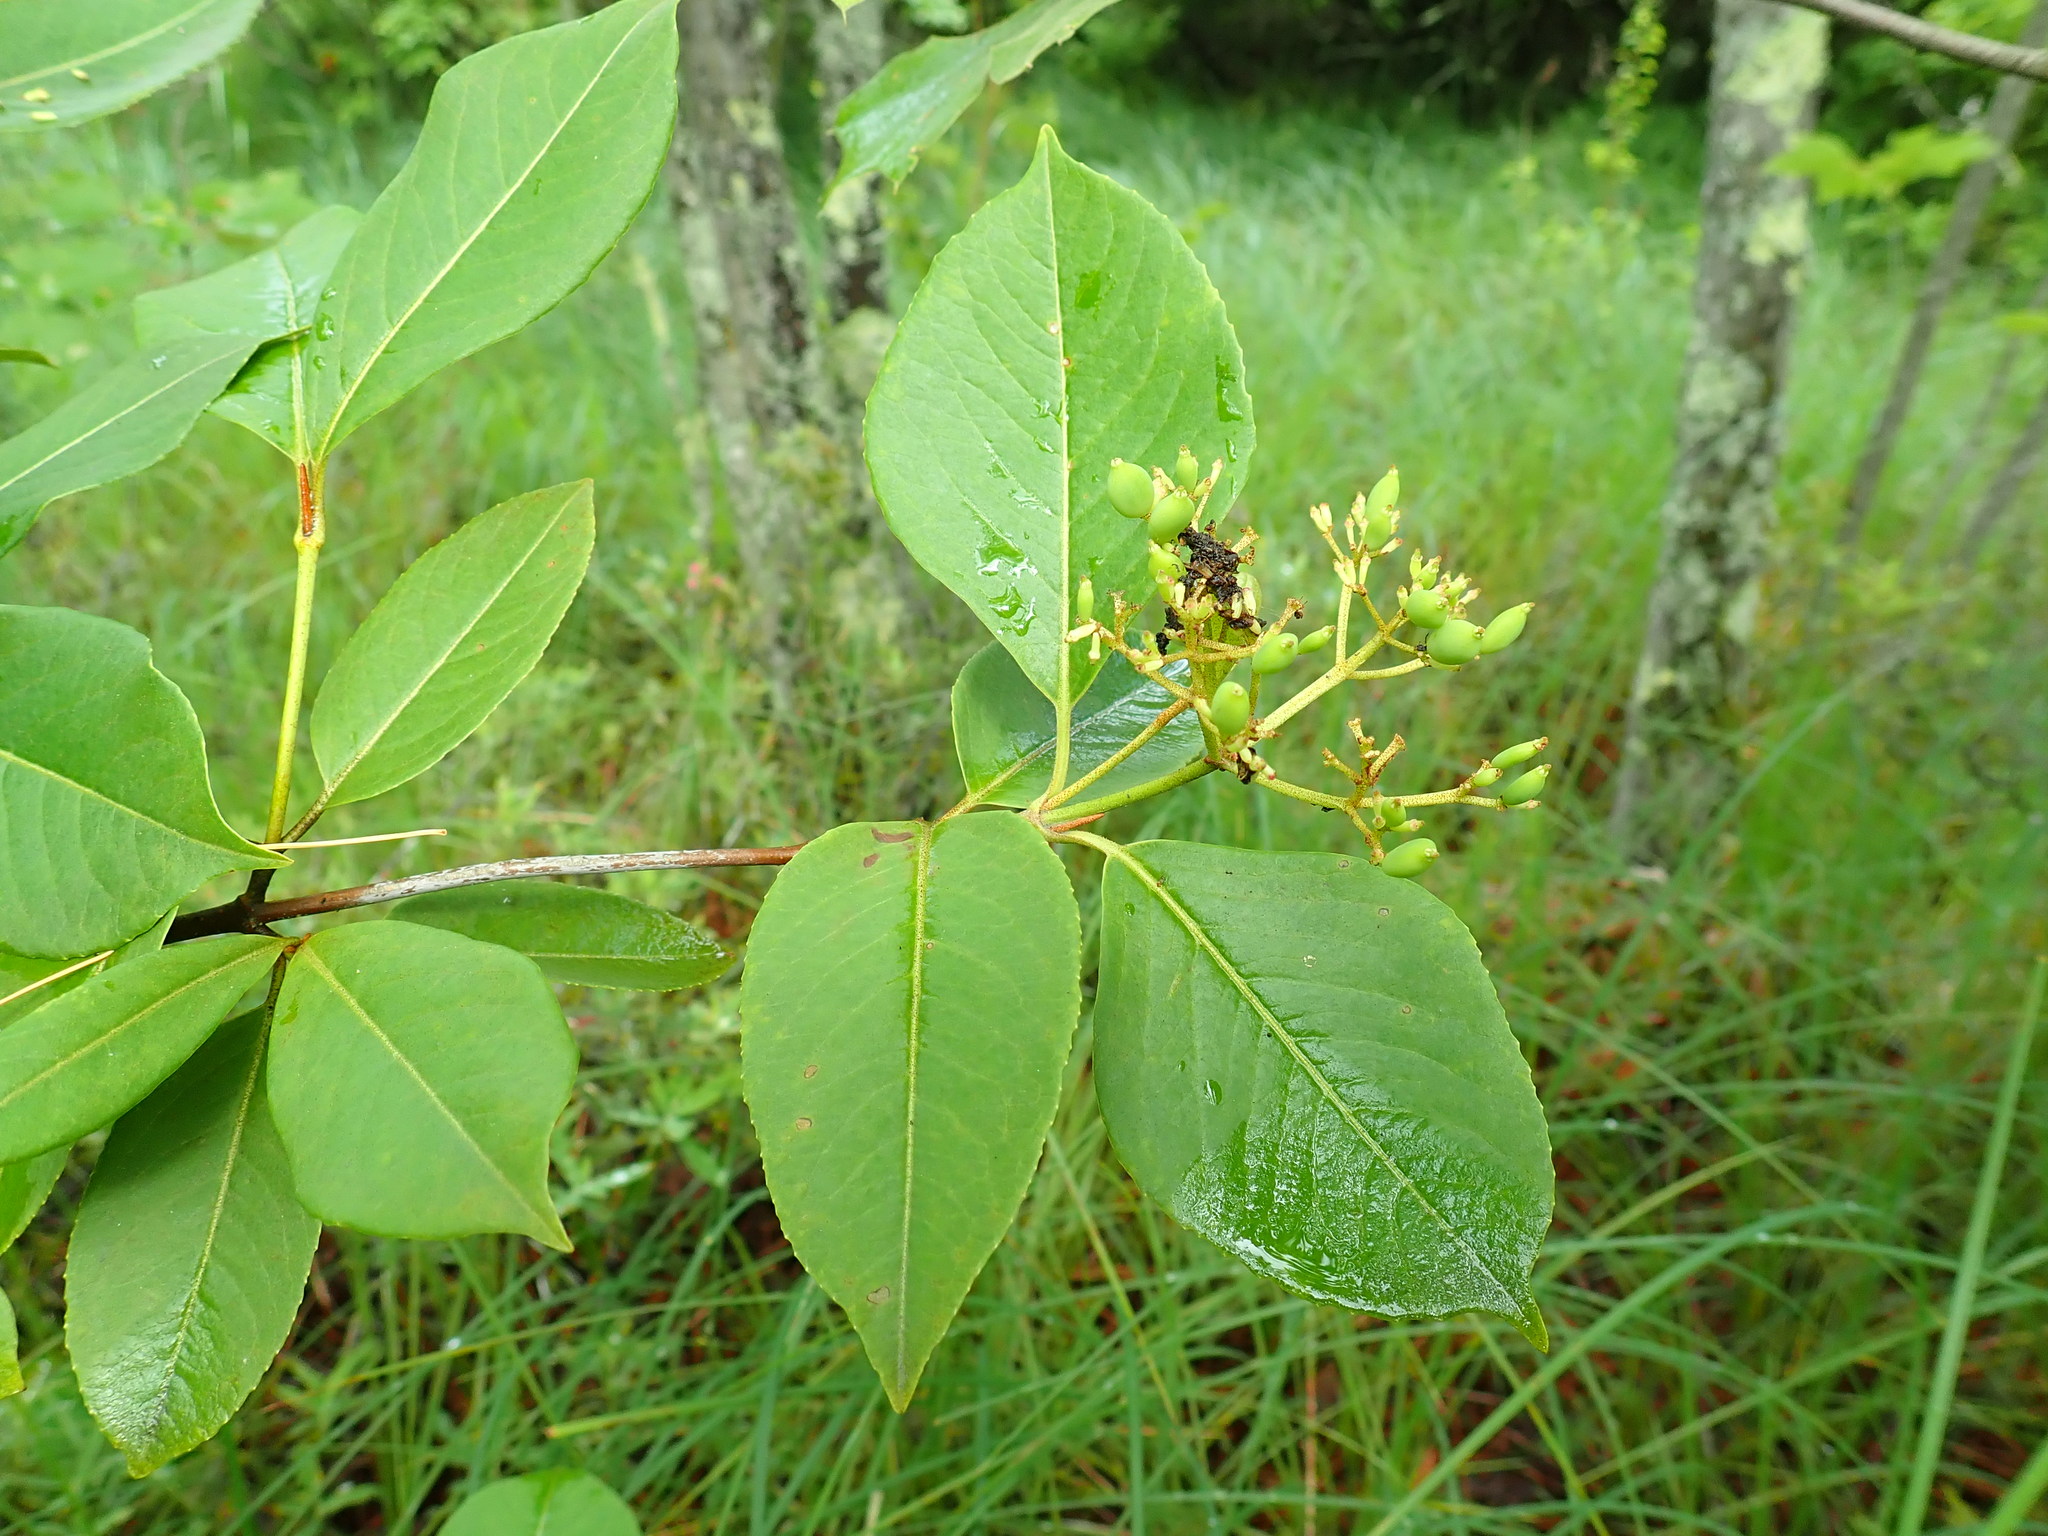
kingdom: Plantae
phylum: Tracheophyta
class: Magnoliopsida
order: Dipsacales
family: Viburnaceae
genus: Viburnum
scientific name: Viburnum cassinoides
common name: Swamp haw
